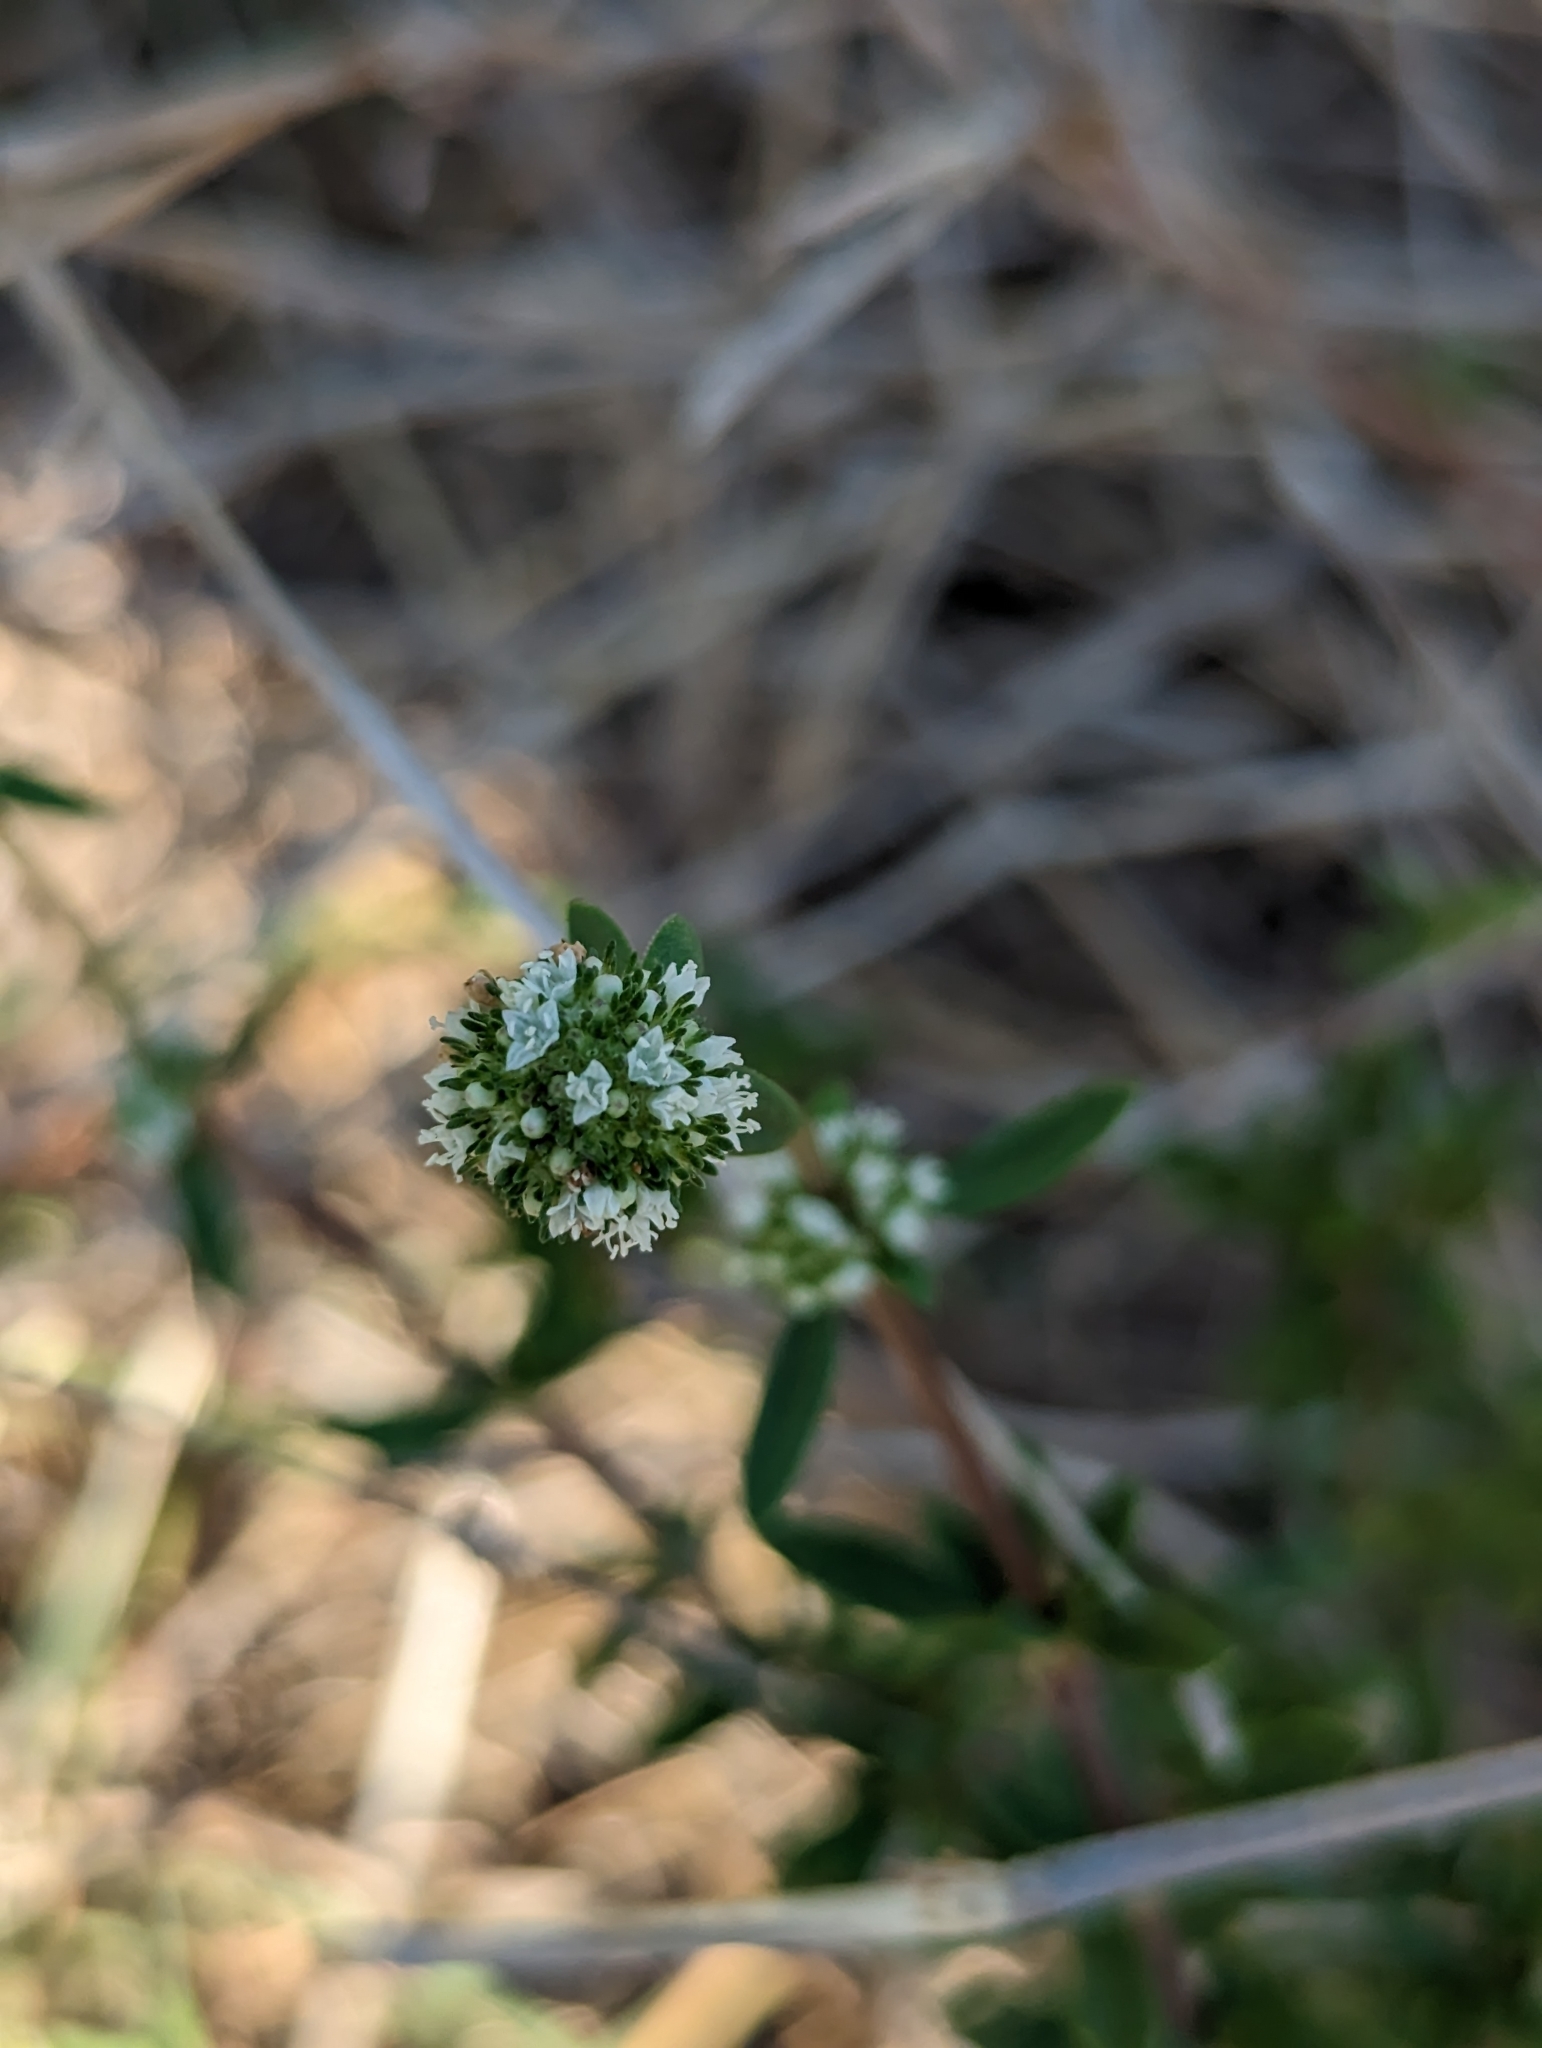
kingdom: Plantae
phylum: Tracheophyta
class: Magnoliopsida
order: Gentianales
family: Rubiaceae
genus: Spermacoce
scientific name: Spermacoce verticillata
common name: Shrubby false buttonweed
